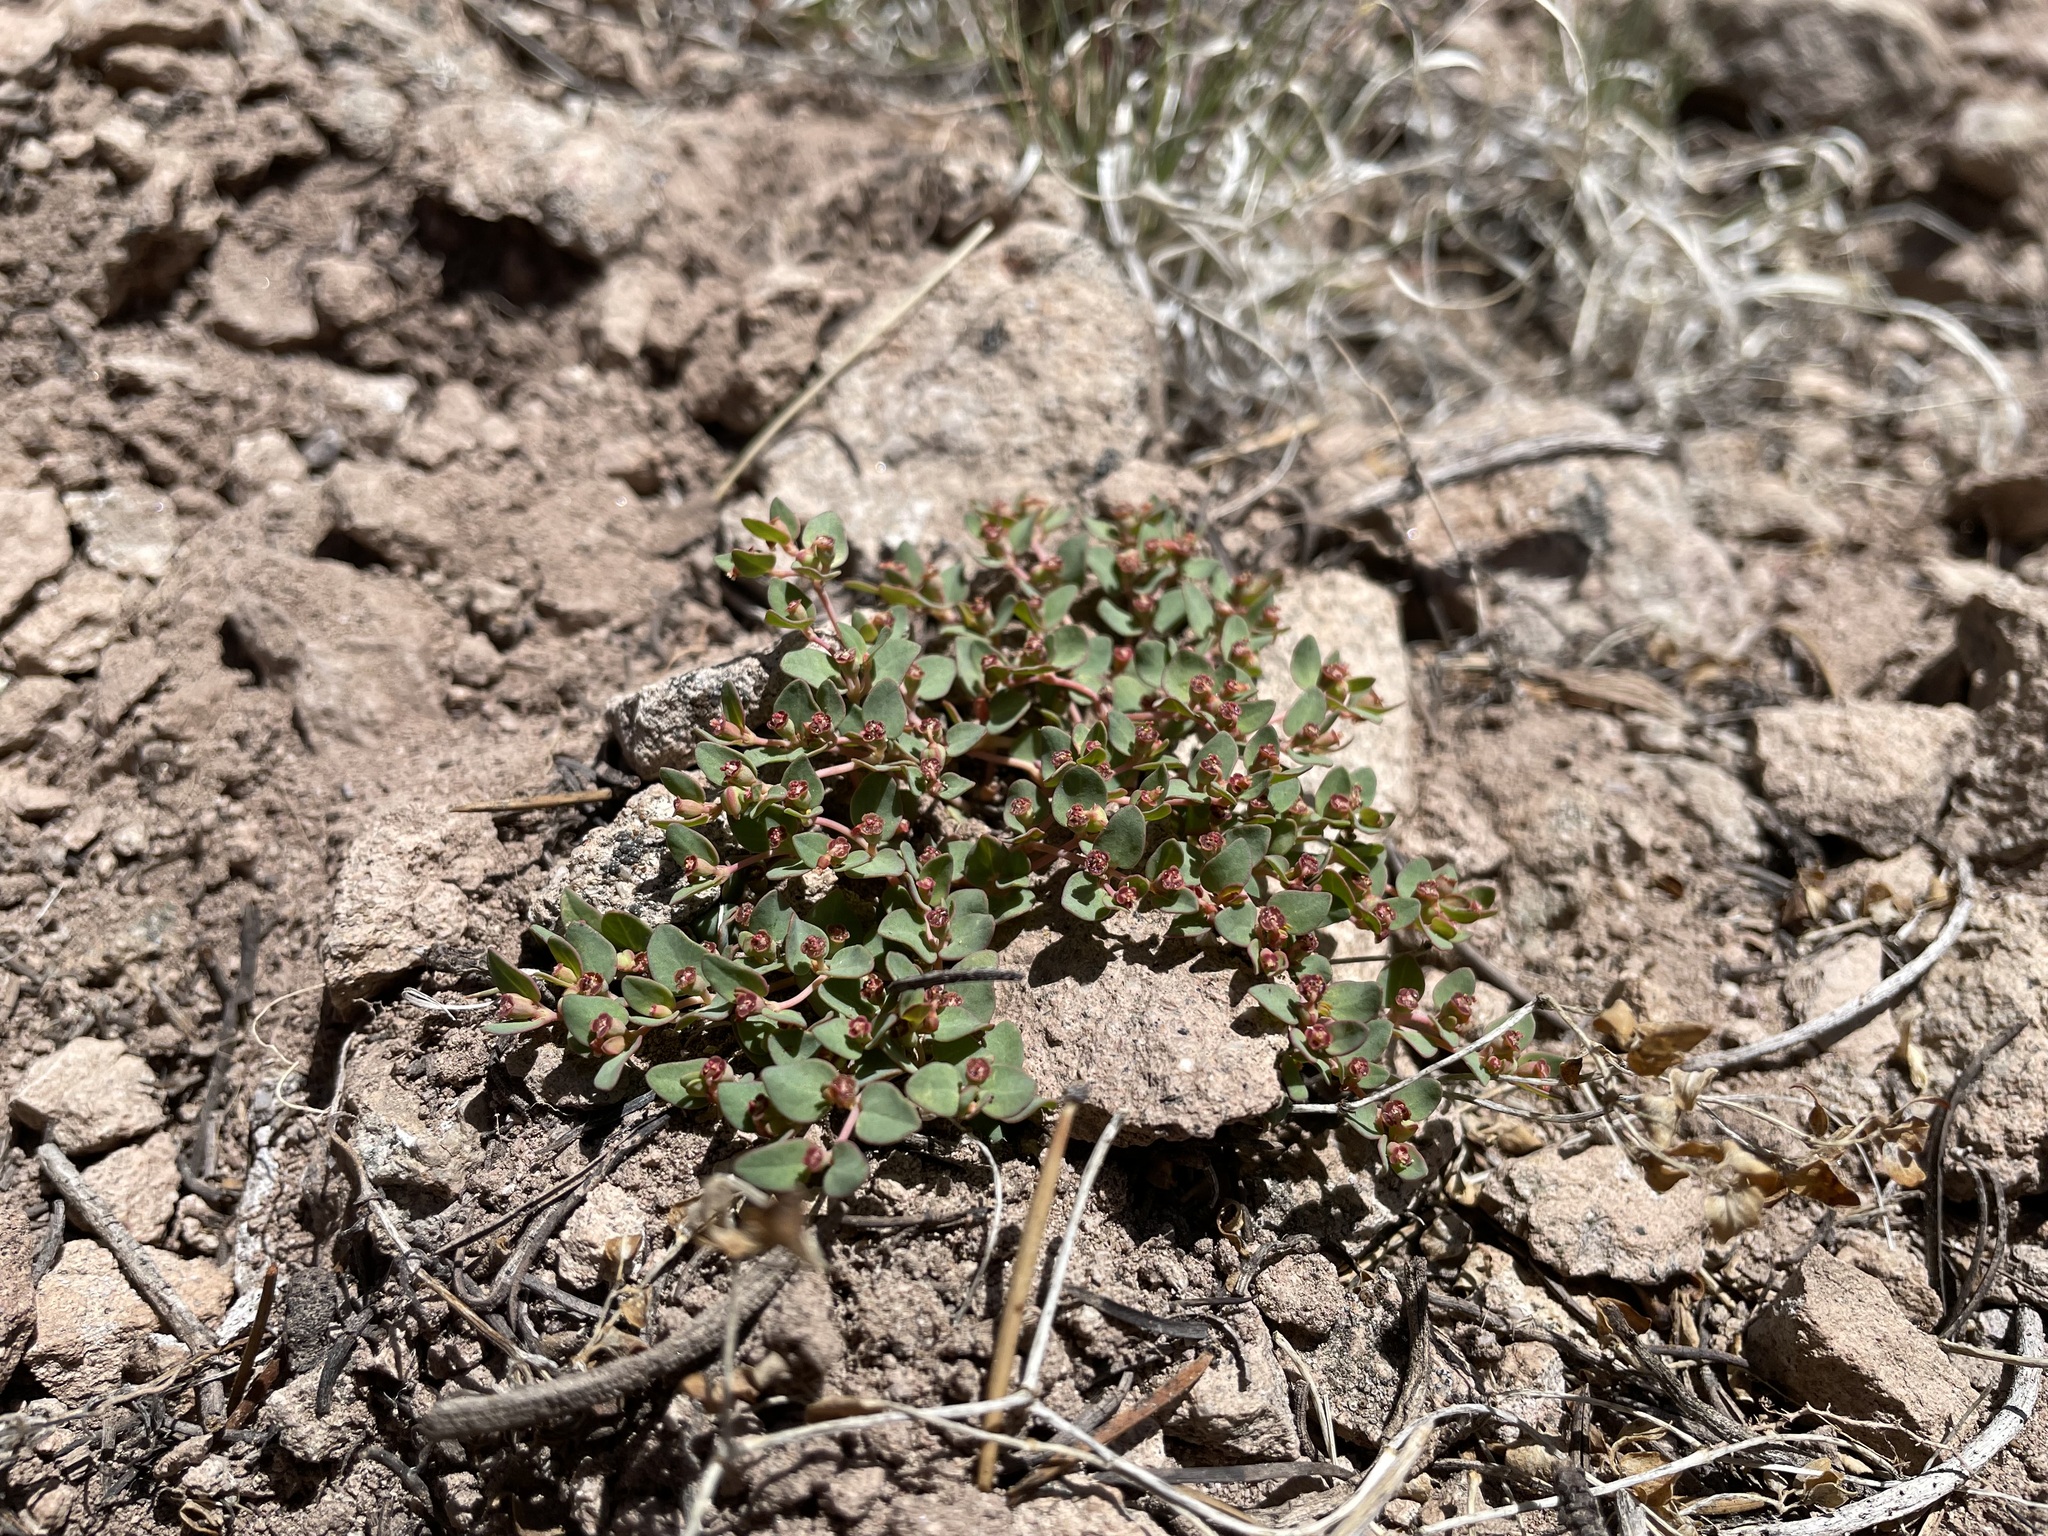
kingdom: Plantae
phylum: Tracheophyta
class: Magnoliopsida
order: Malpighiales
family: Euphorbiaceae
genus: Euphorbia
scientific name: Euphorbia fendleri
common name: Fendler's euphorbia
